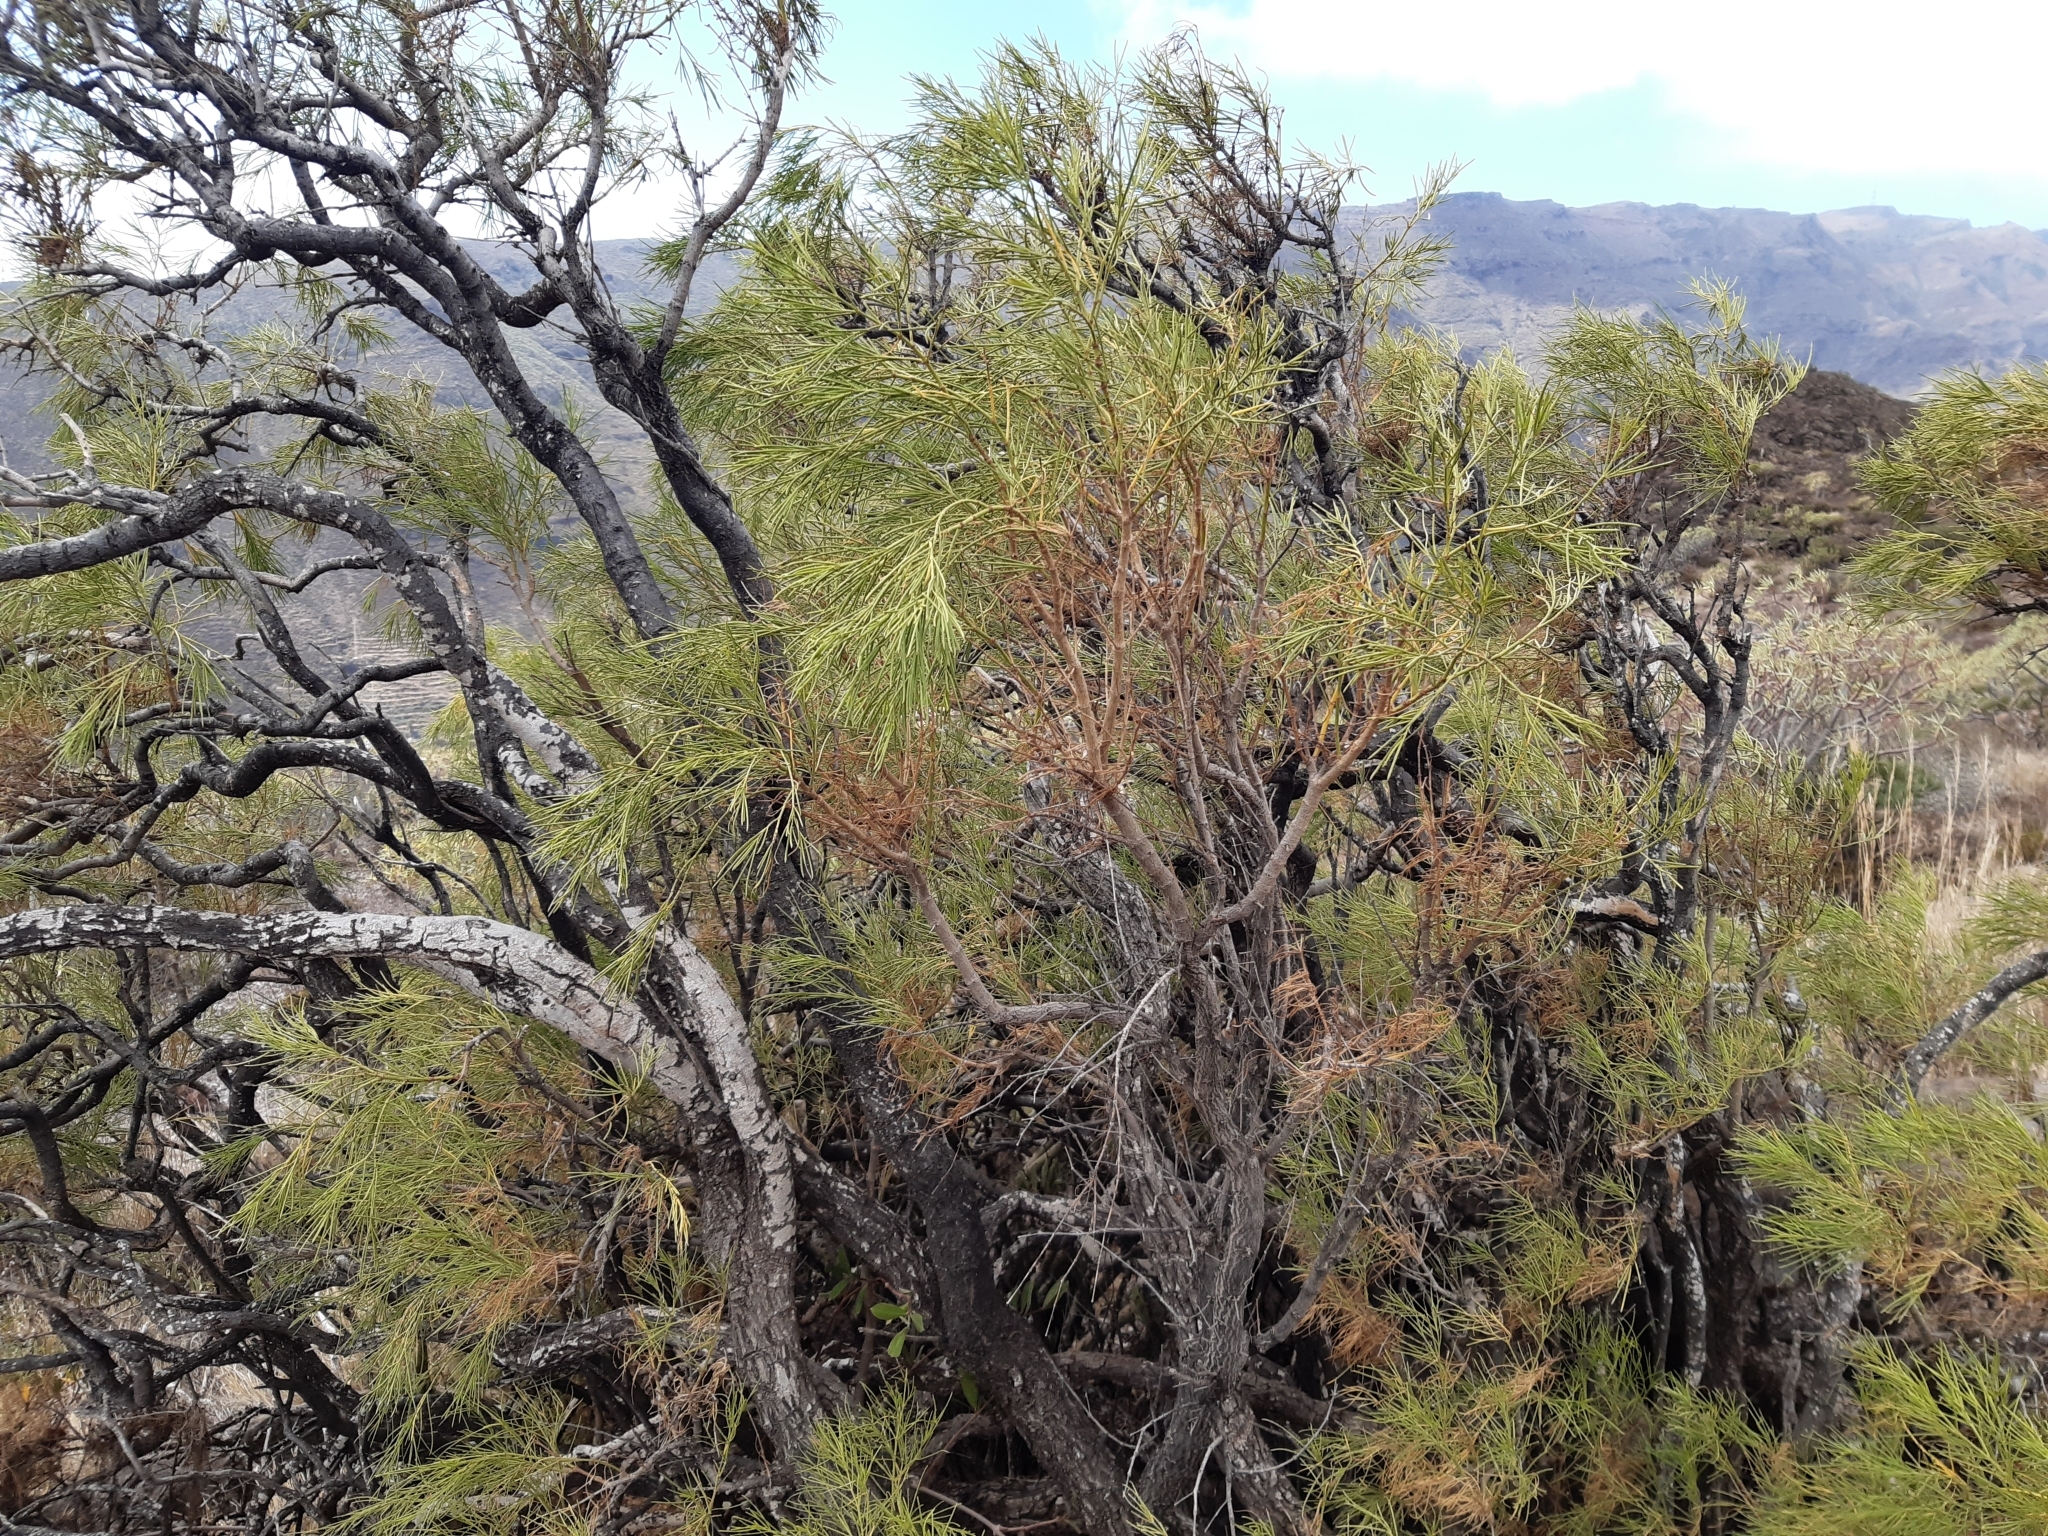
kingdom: Plantae
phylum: Tracheophyta
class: Magnoliopsida
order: Gentianales
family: Rubiaceae
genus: Plocama
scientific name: Plocama pendula
